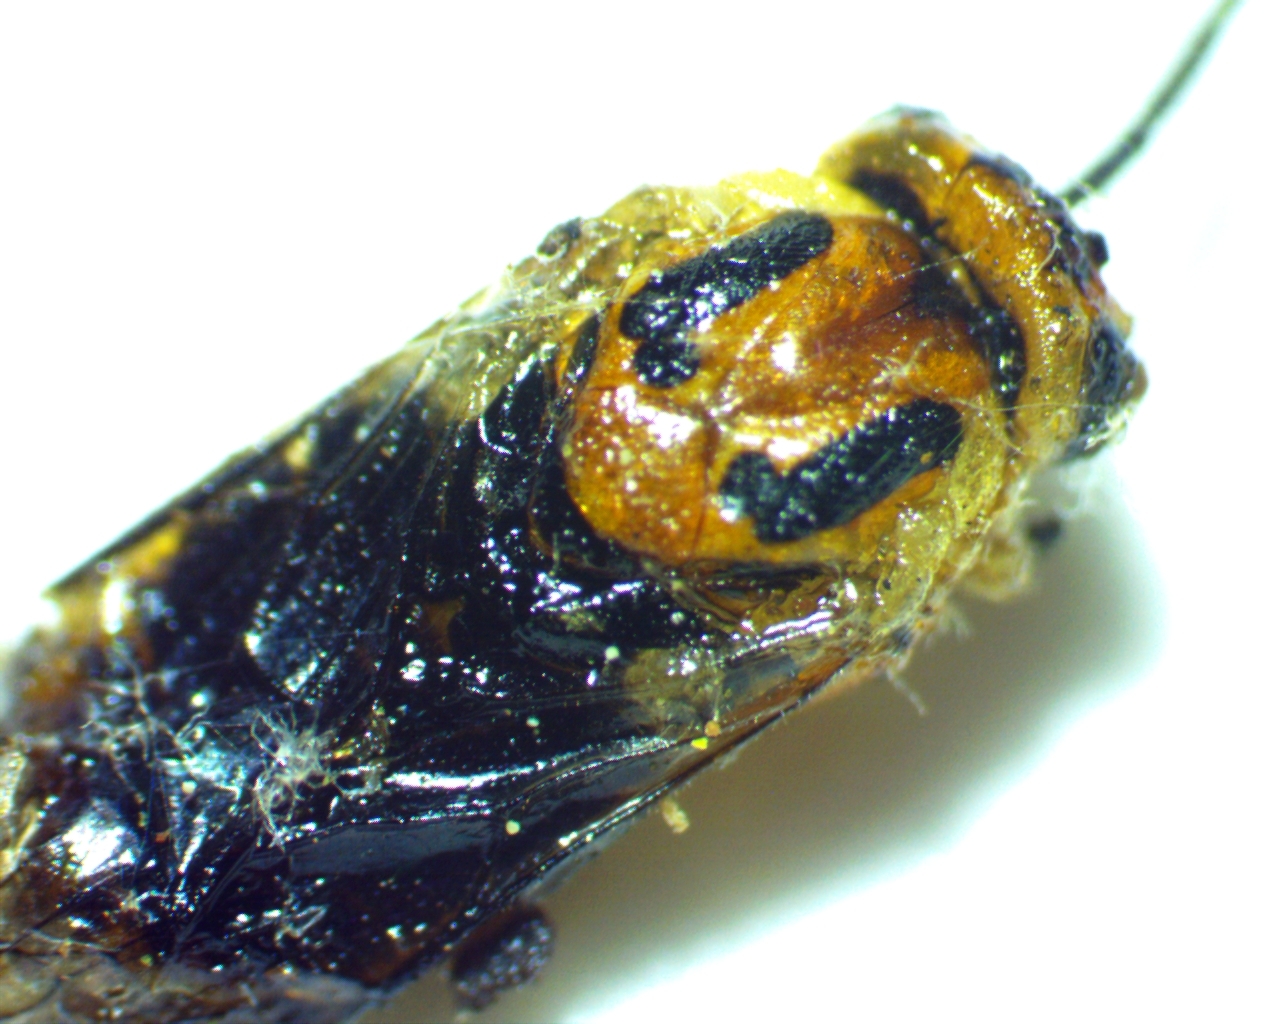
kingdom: Animalia
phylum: Arthropoda
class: Insecta
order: Hymenoptera
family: Tenthredinidae
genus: Pristiphora
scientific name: Pristiphora chlorea
